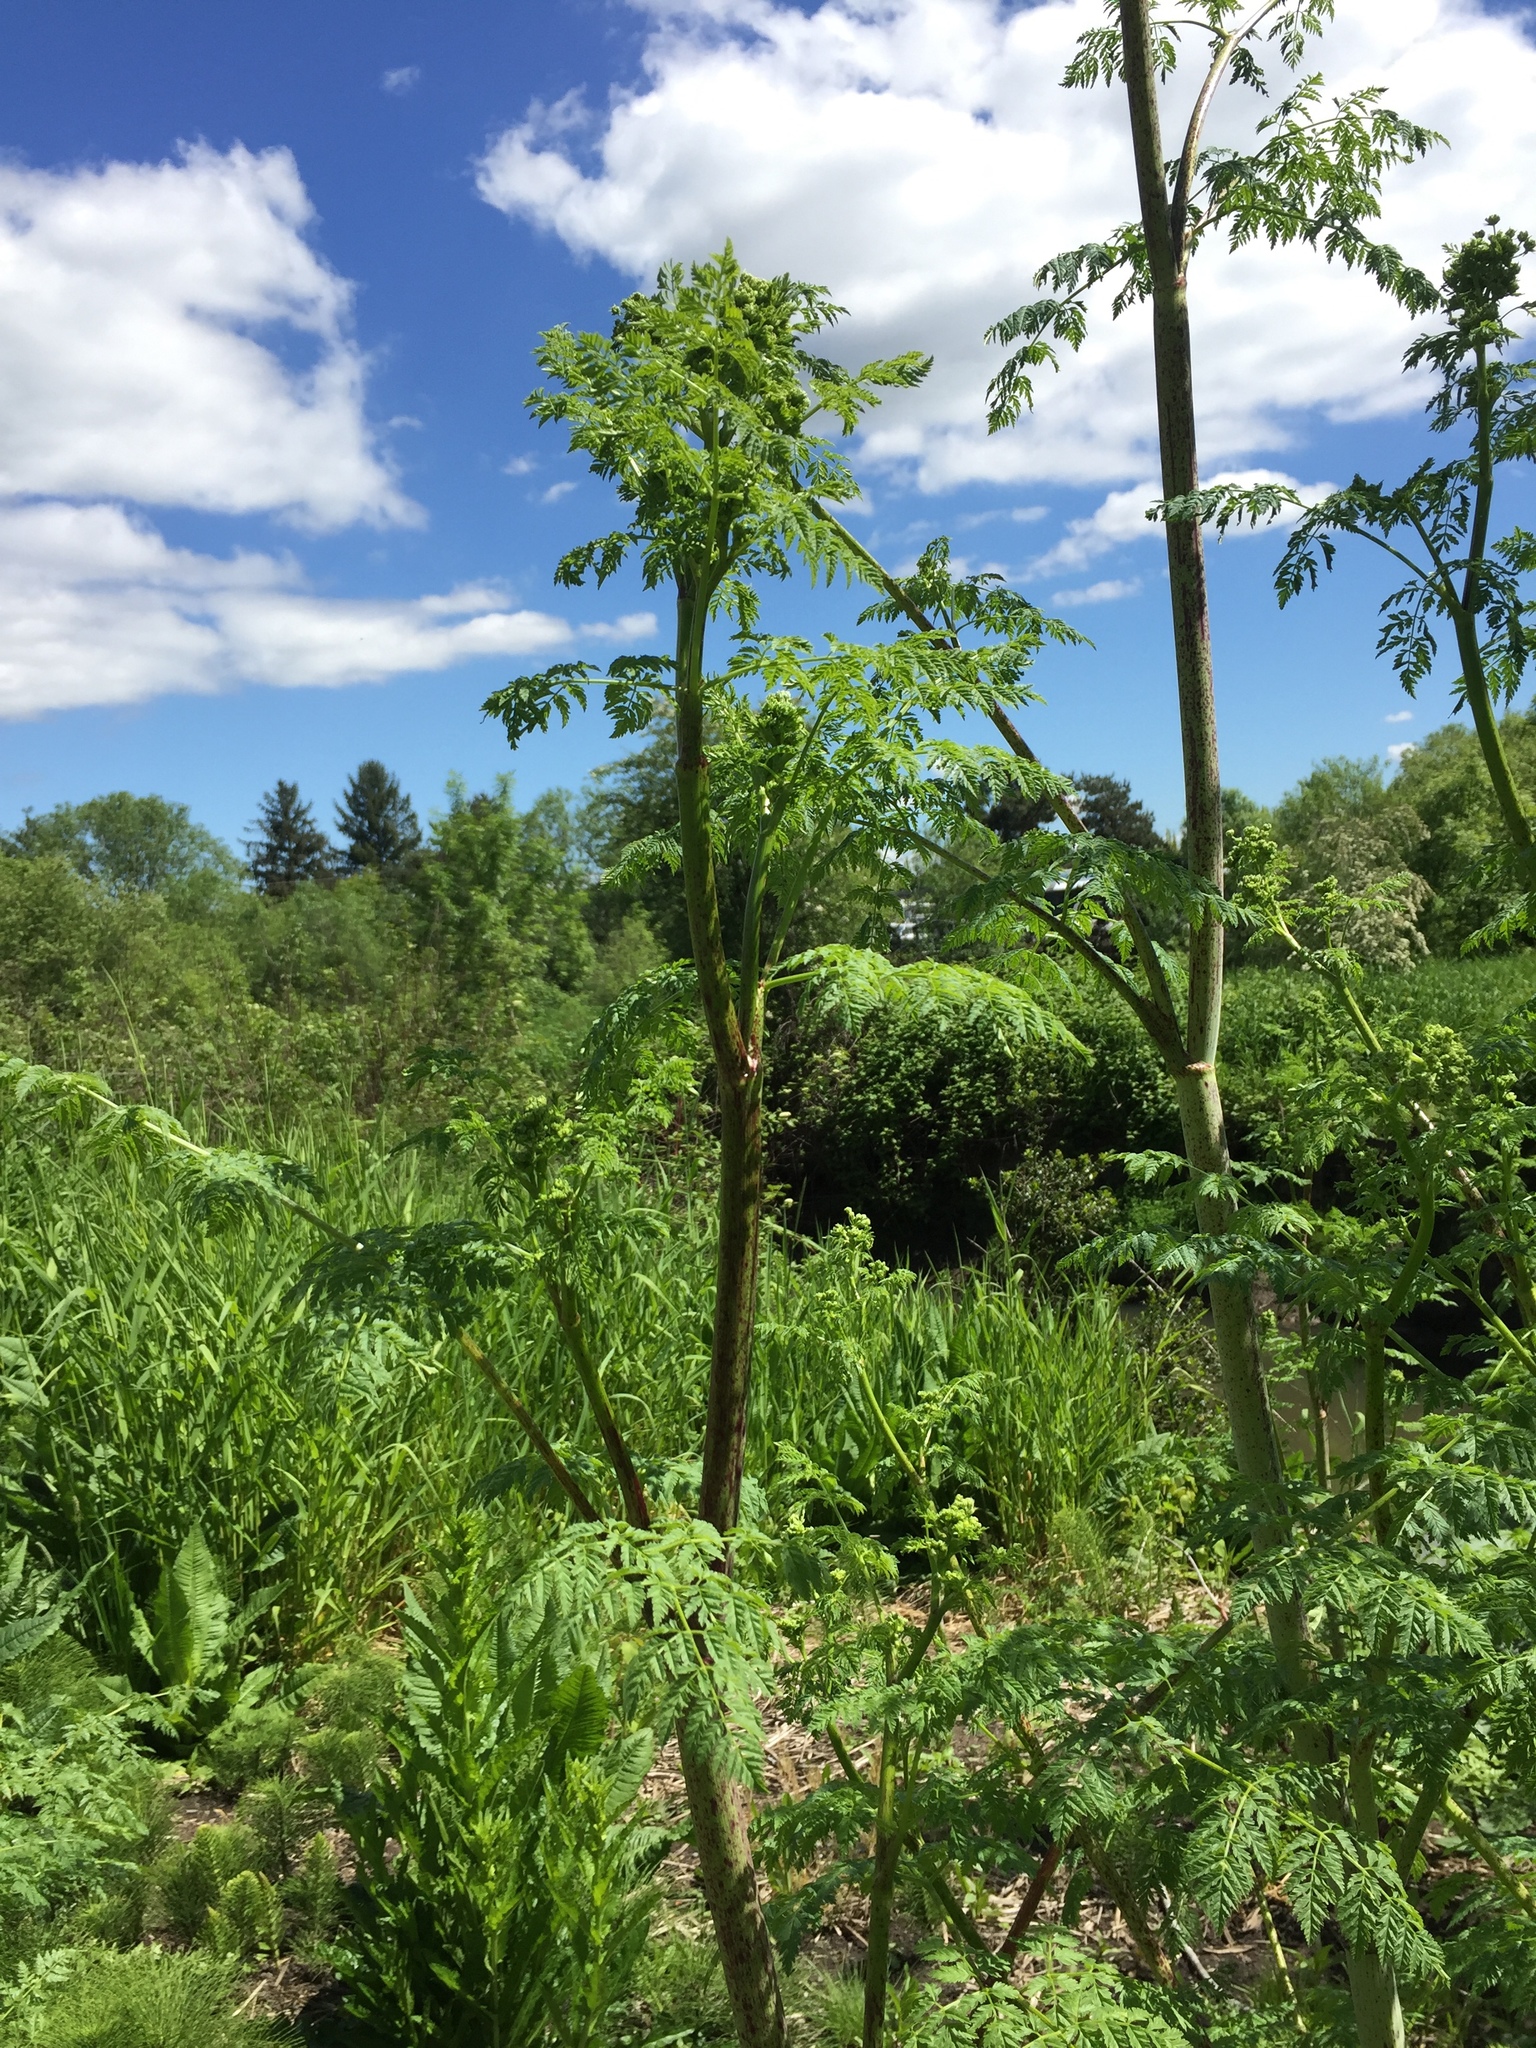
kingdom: Plantae
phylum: Tracheophyta
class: Magnoliopsida
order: Apiales
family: Apiaceae
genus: Conium
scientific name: Conium maculatum
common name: Hemlock
